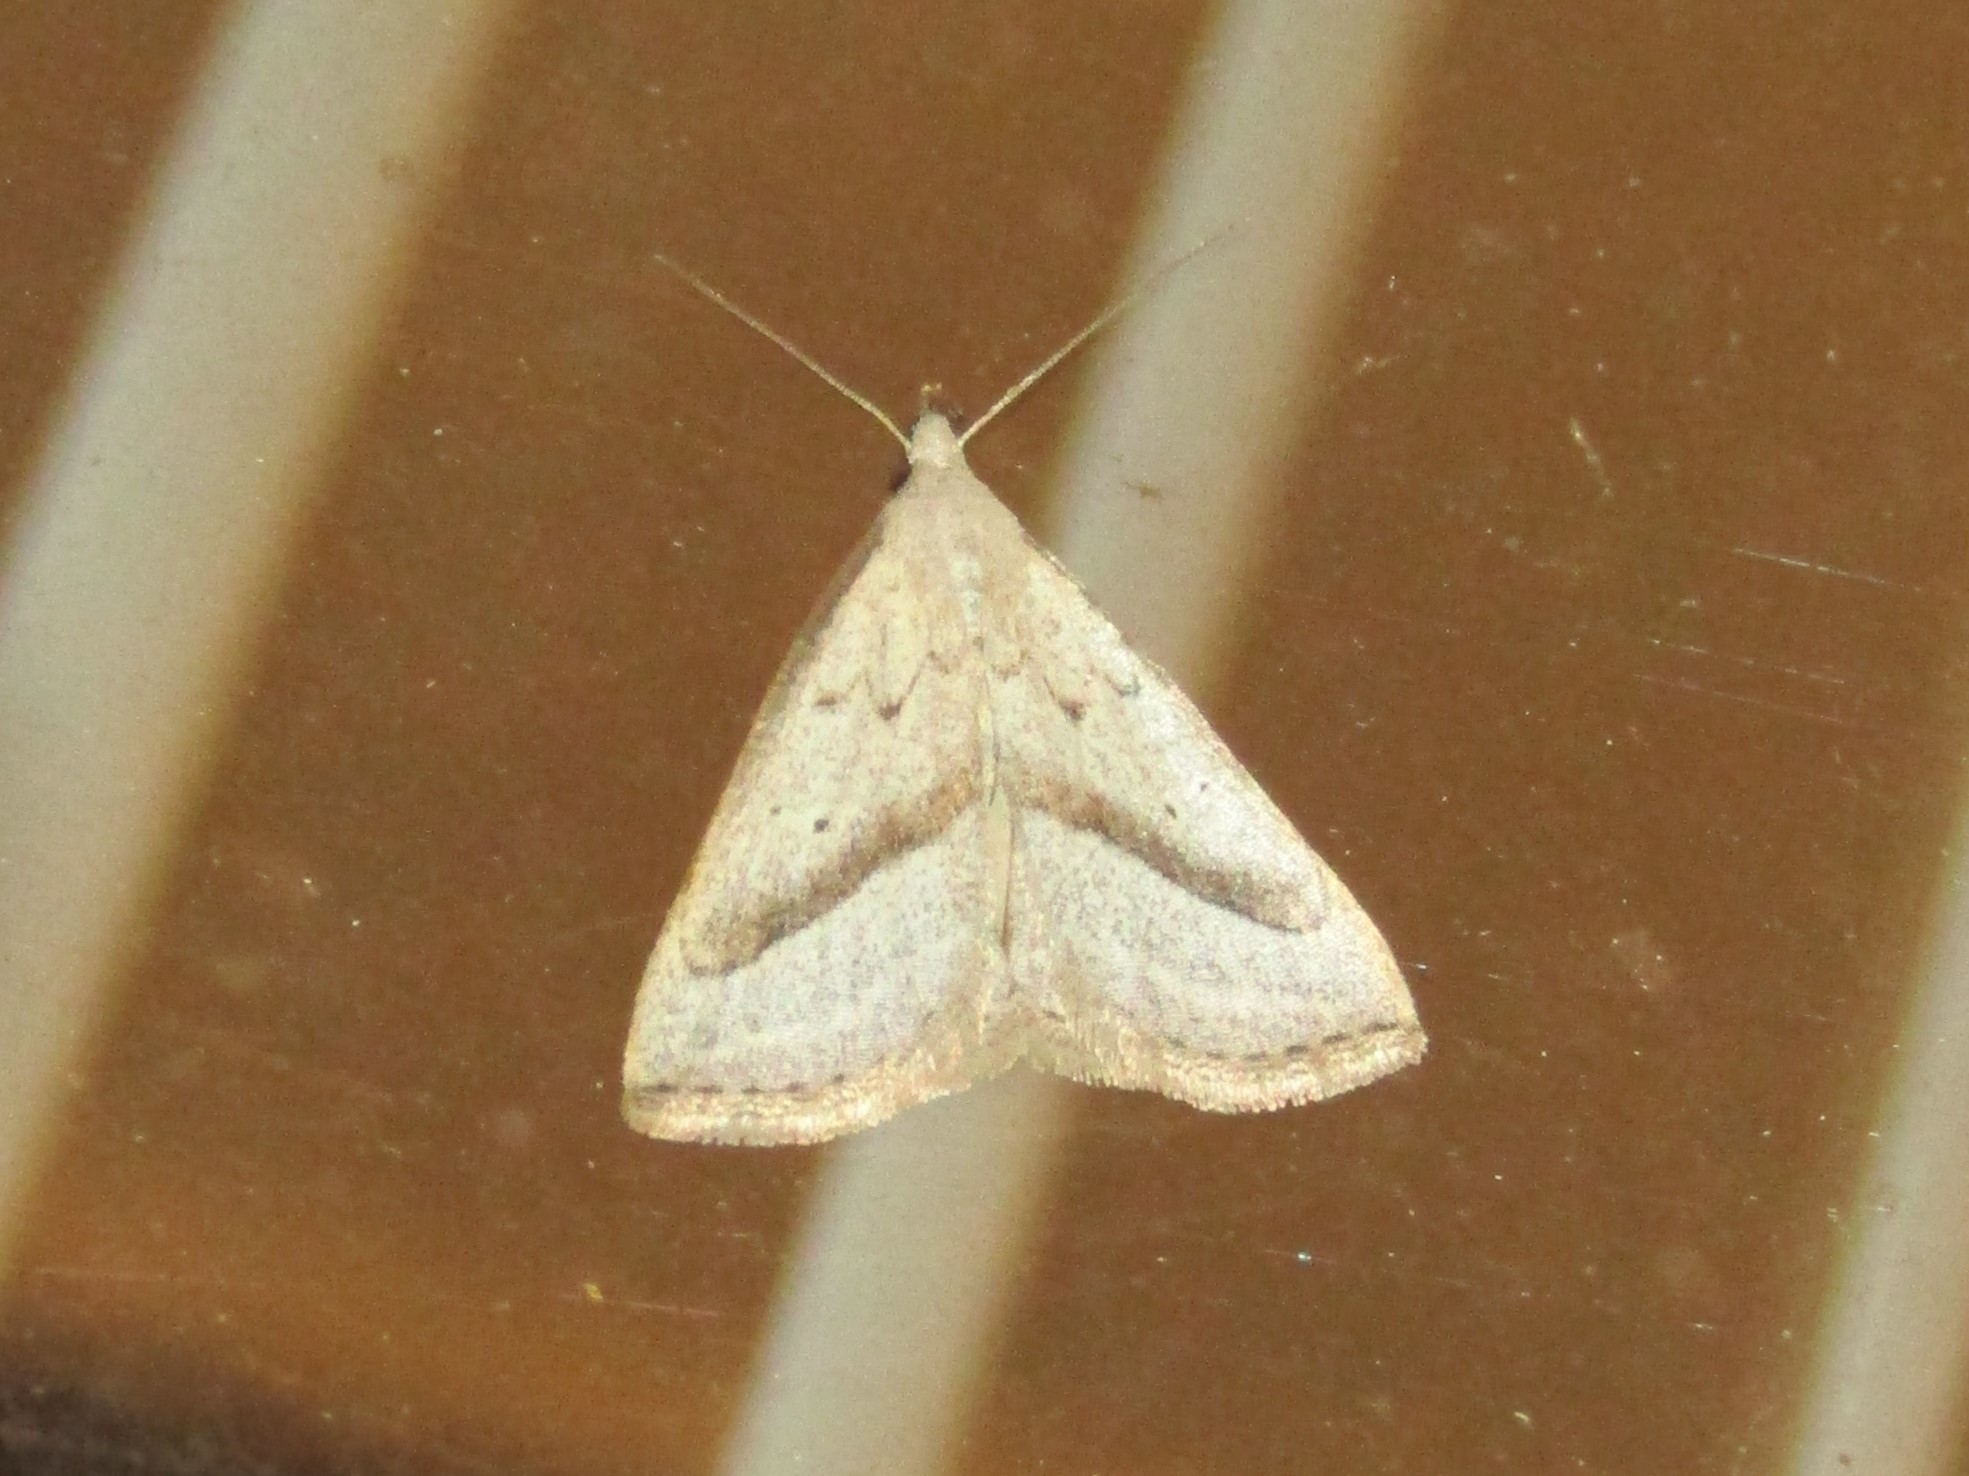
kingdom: Animalia
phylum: Arthropoda
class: Insecta
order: Lepidoptera
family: Erebidae
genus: Macrochilo
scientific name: Macrochilo hypocritalis
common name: Twin-dotted owlet
